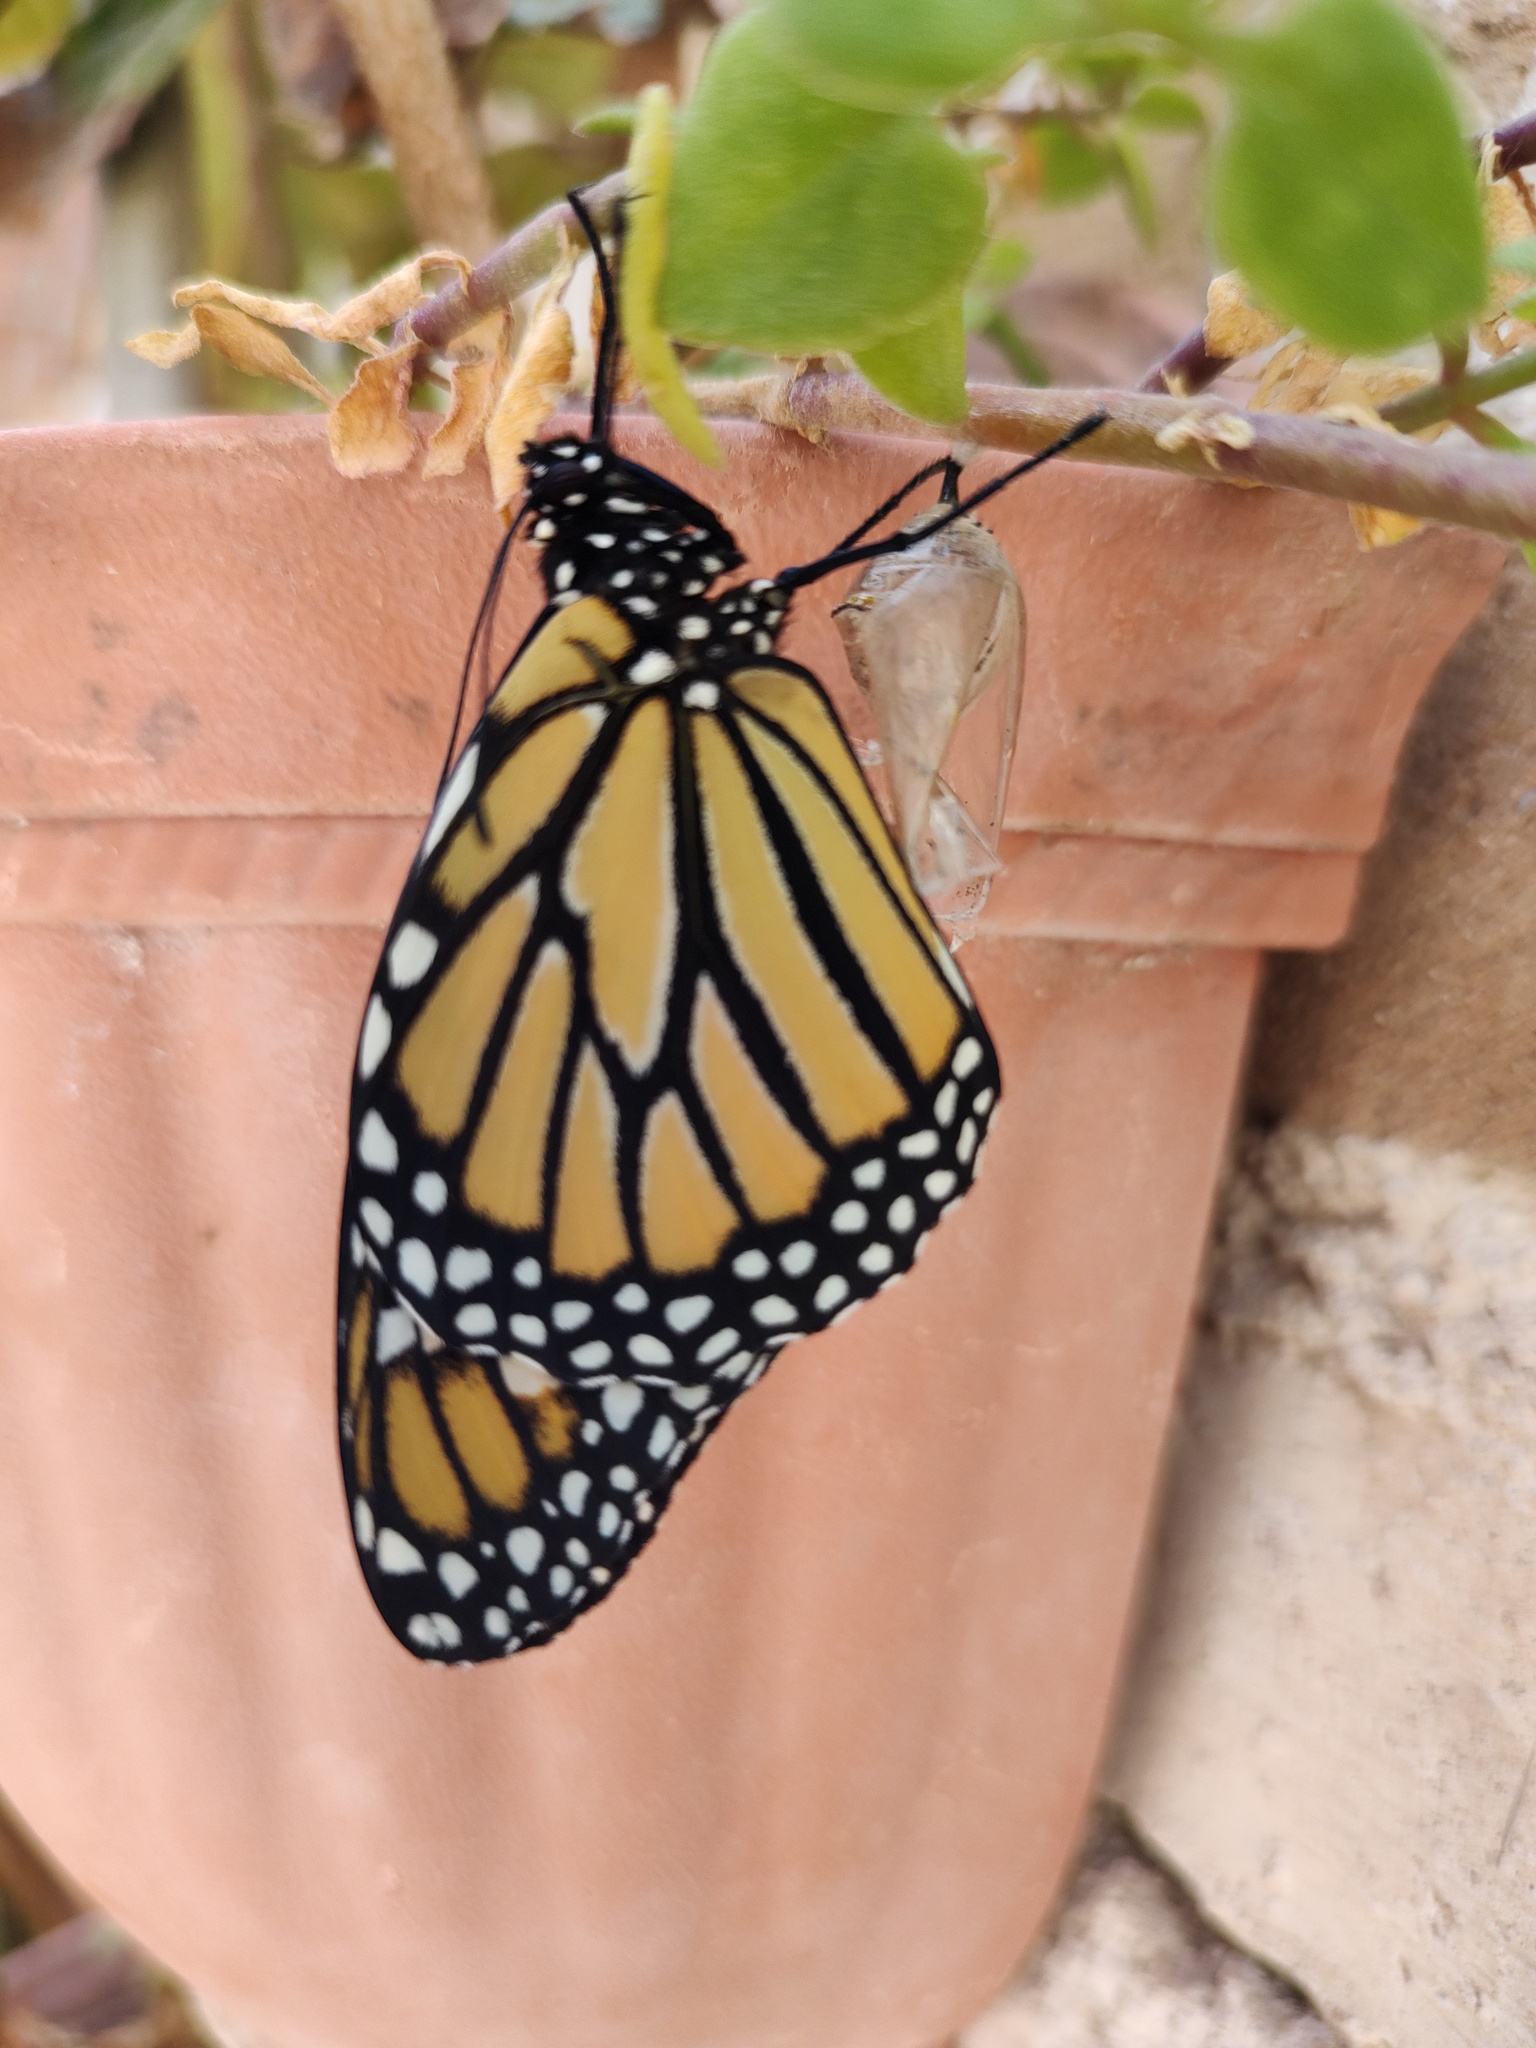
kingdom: Animalia
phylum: Arthropoda
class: Insecta
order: Lepidoptera
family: Nymphalidae
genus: Danaus
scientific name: Danaus plexippus
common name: Monarch
